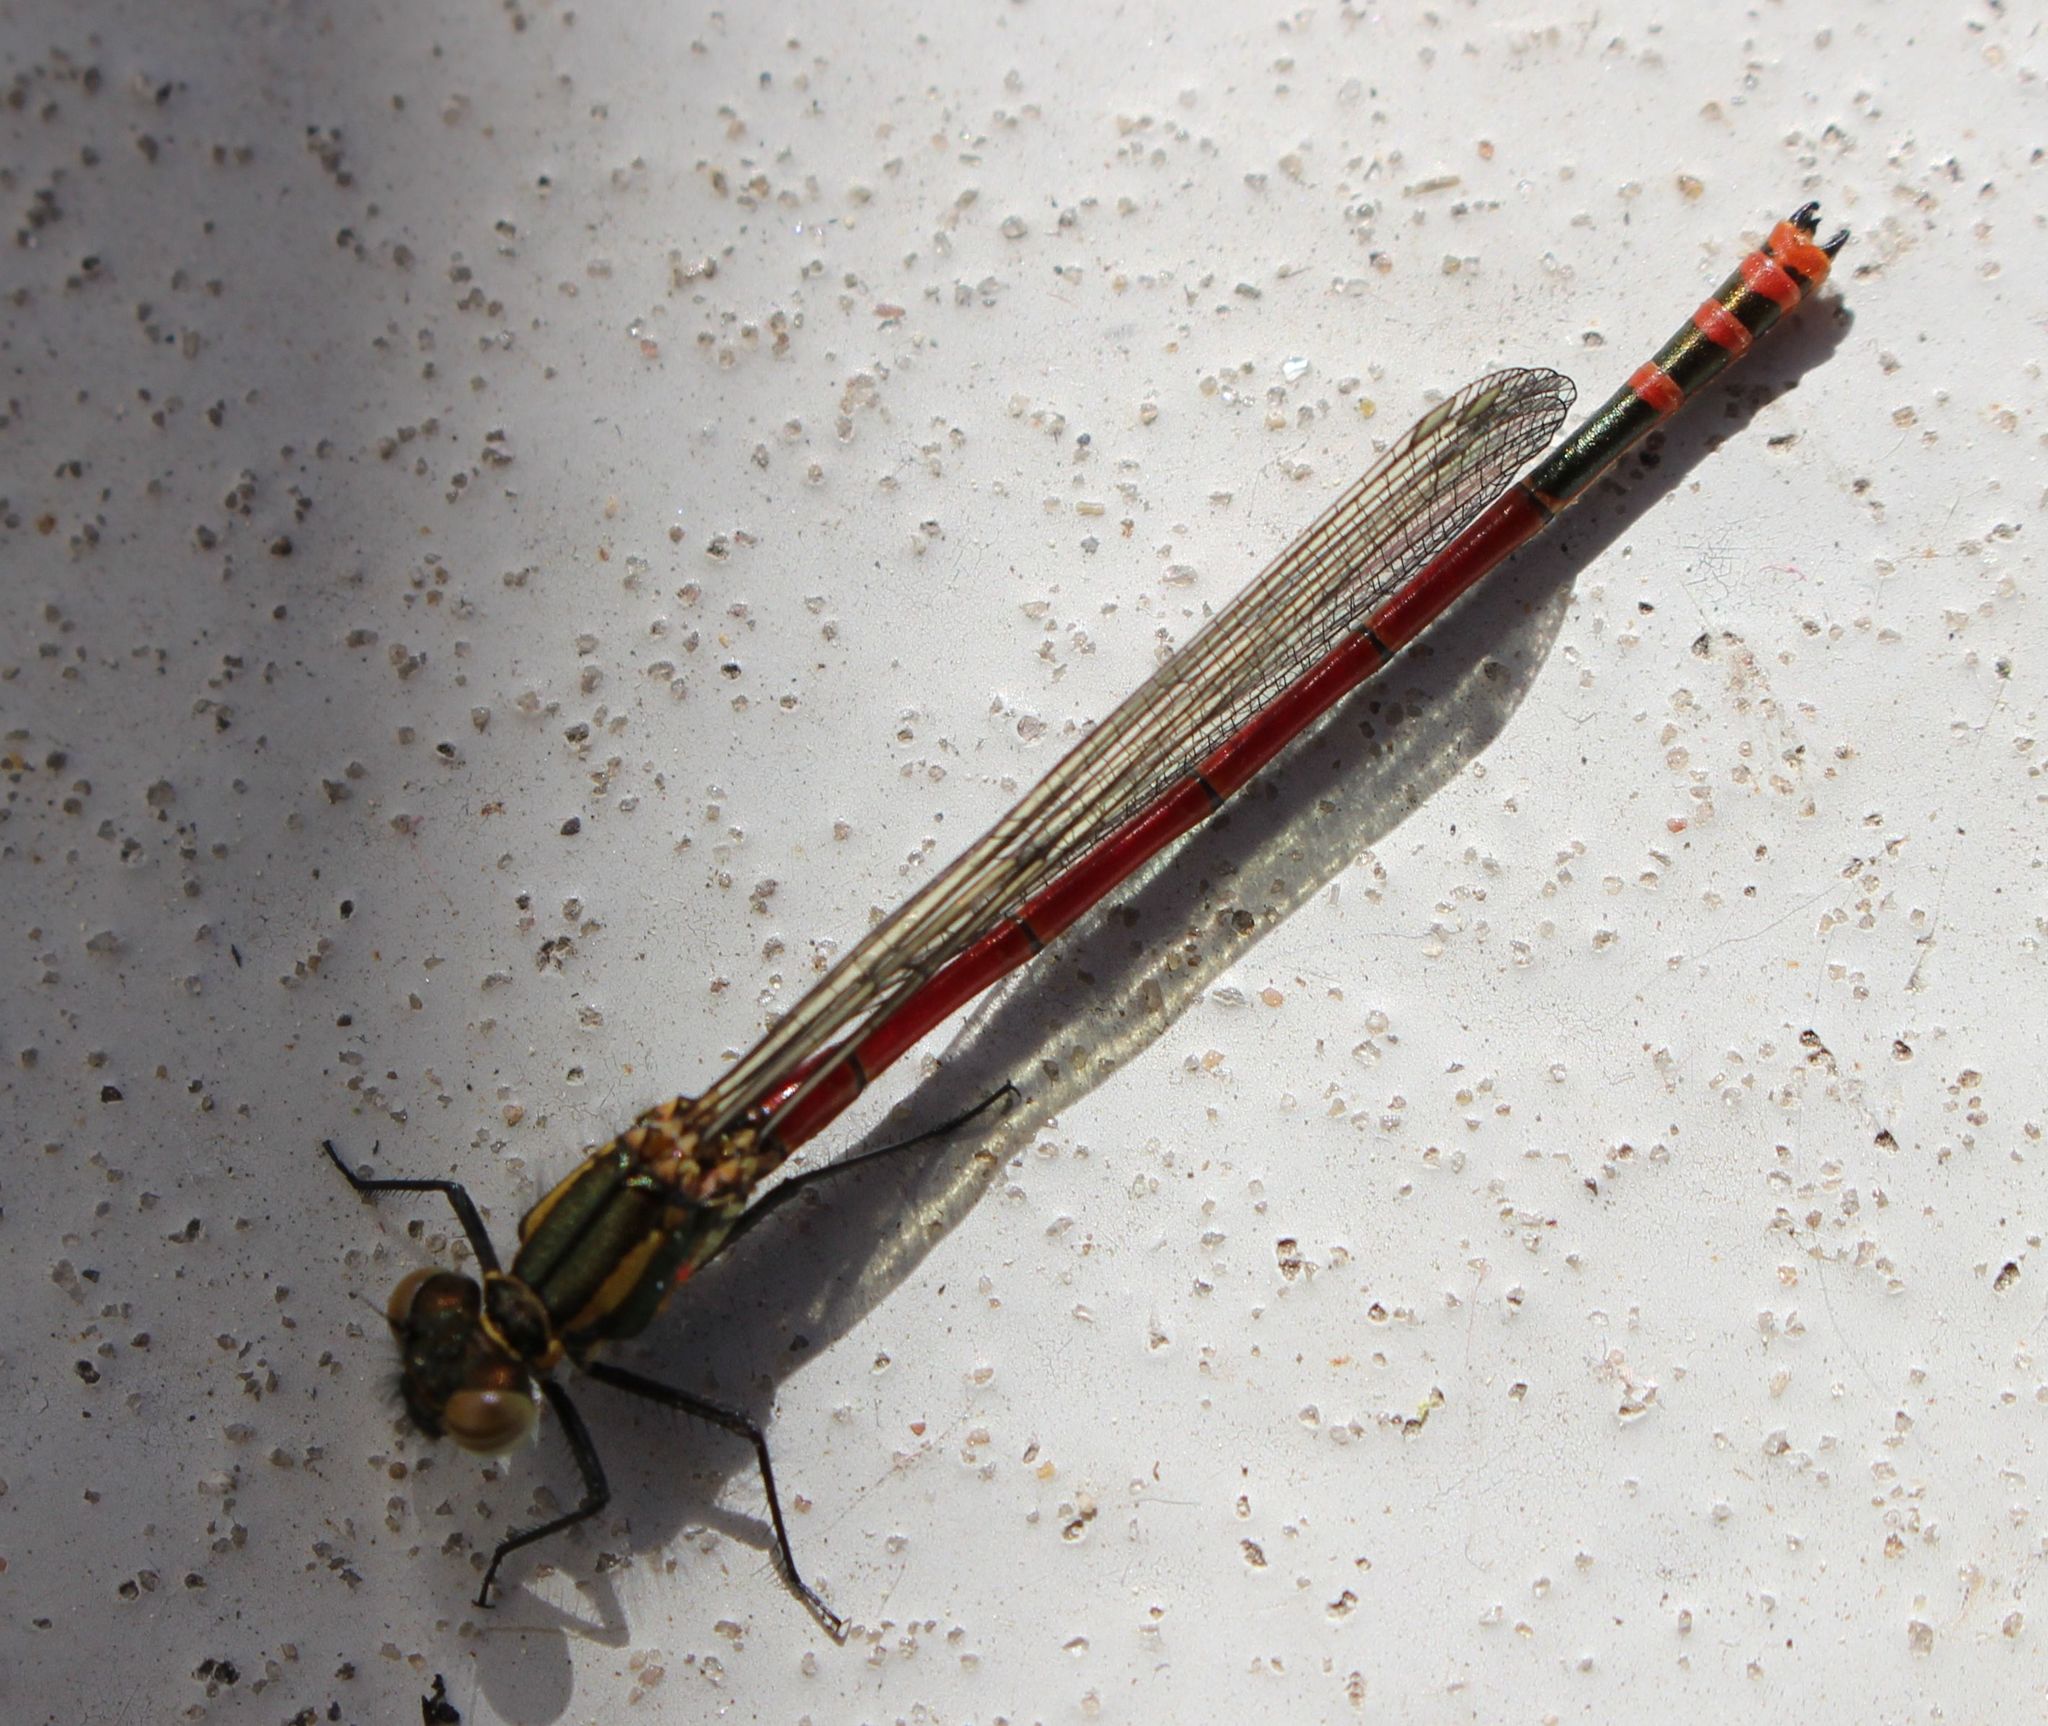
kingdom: Animalia
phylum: Arthropoda
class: Insecta
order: Odonata
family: Coenagrionidae
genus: Pyrrhosoma
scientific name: Pyrrhosoma nymphula
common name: Large red damsel
